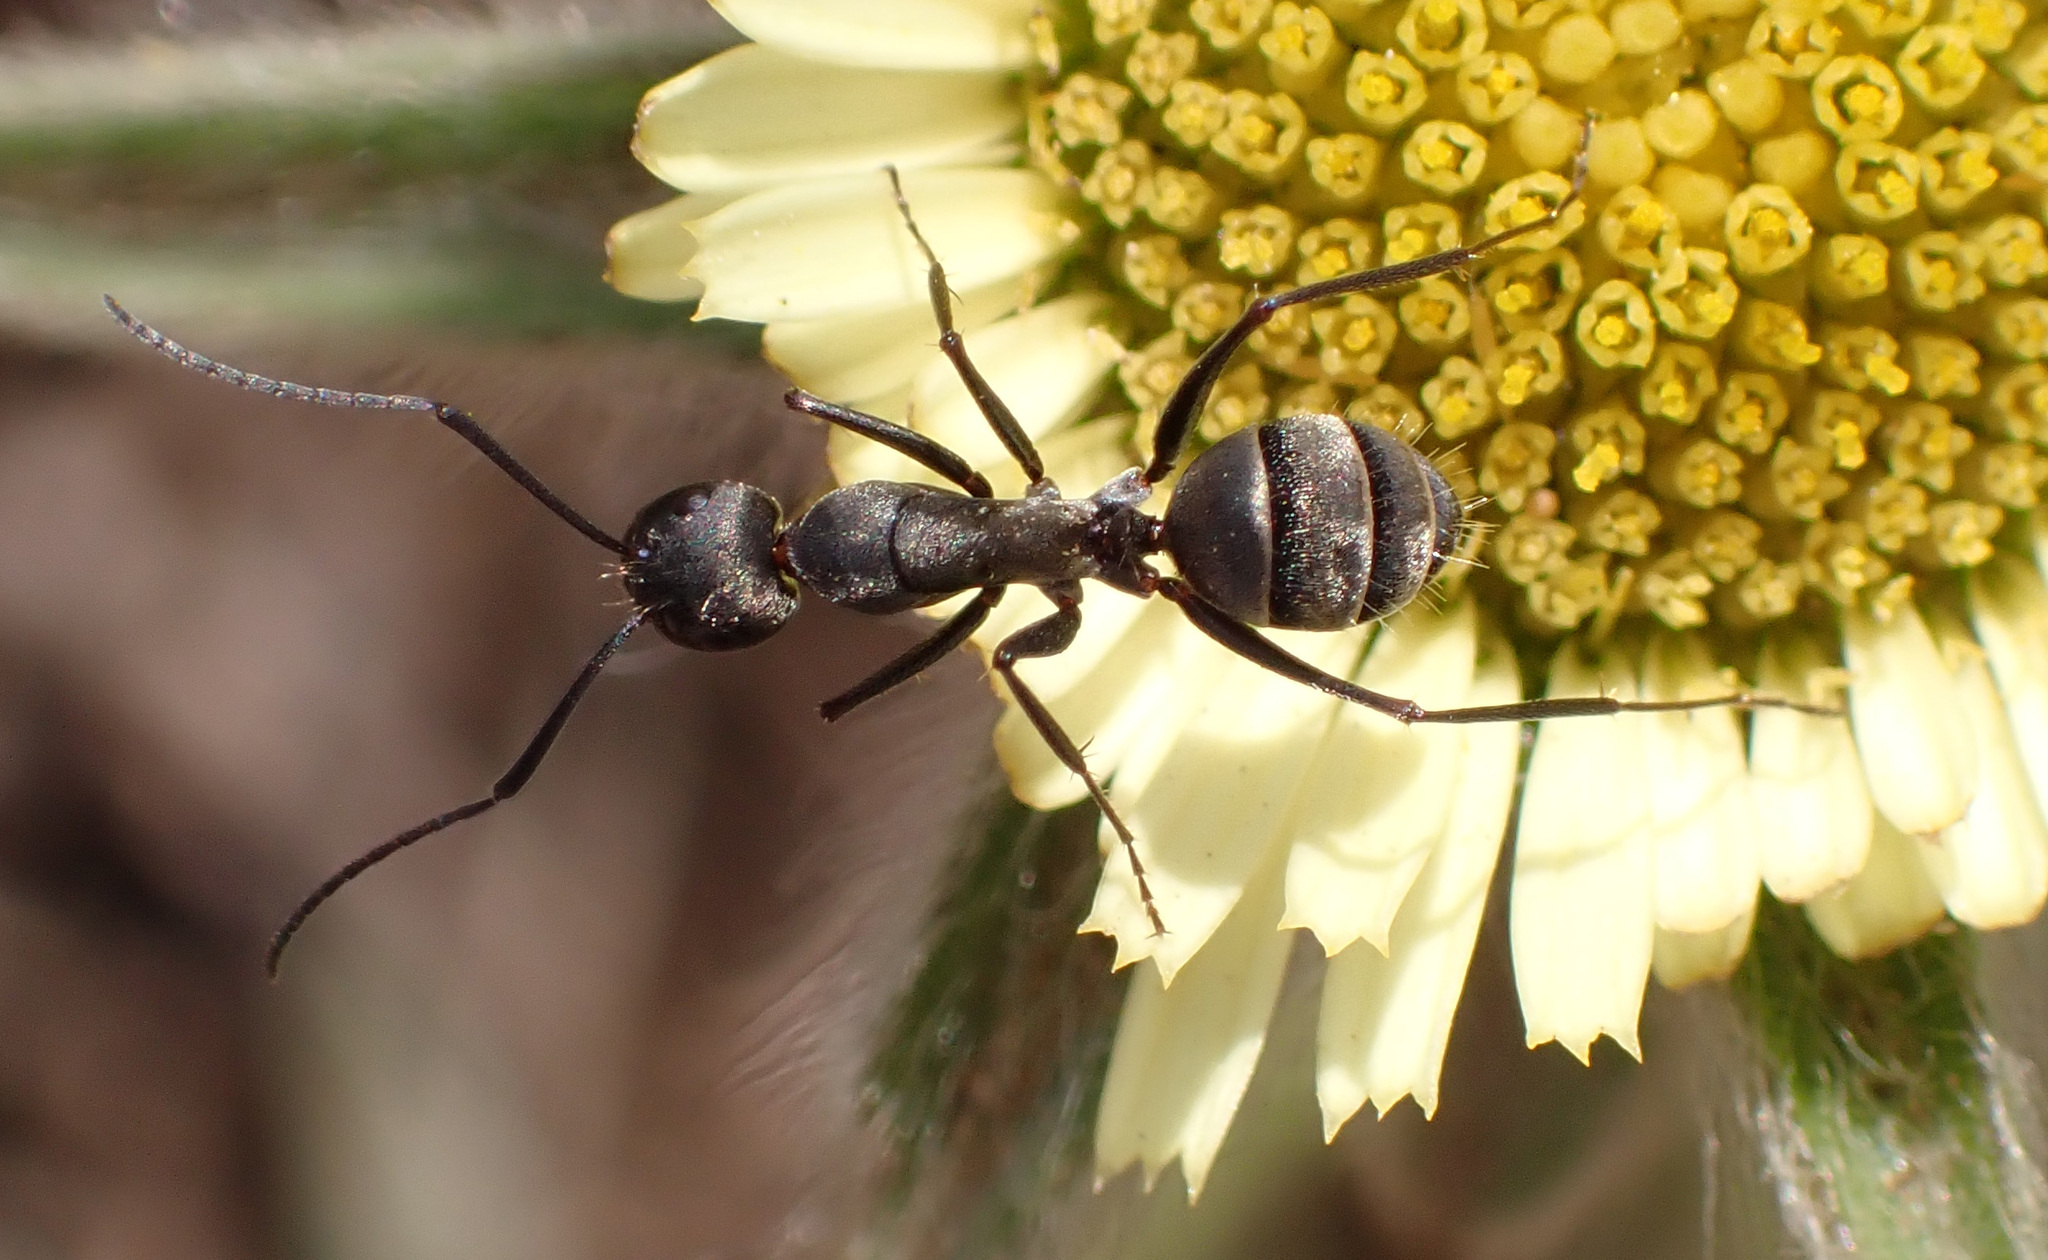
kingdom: Animalia
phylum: Arthropoda
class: Insecta
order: Hymenoptera
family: Formicidae
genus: Camponotus
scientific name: Camponotus micans
